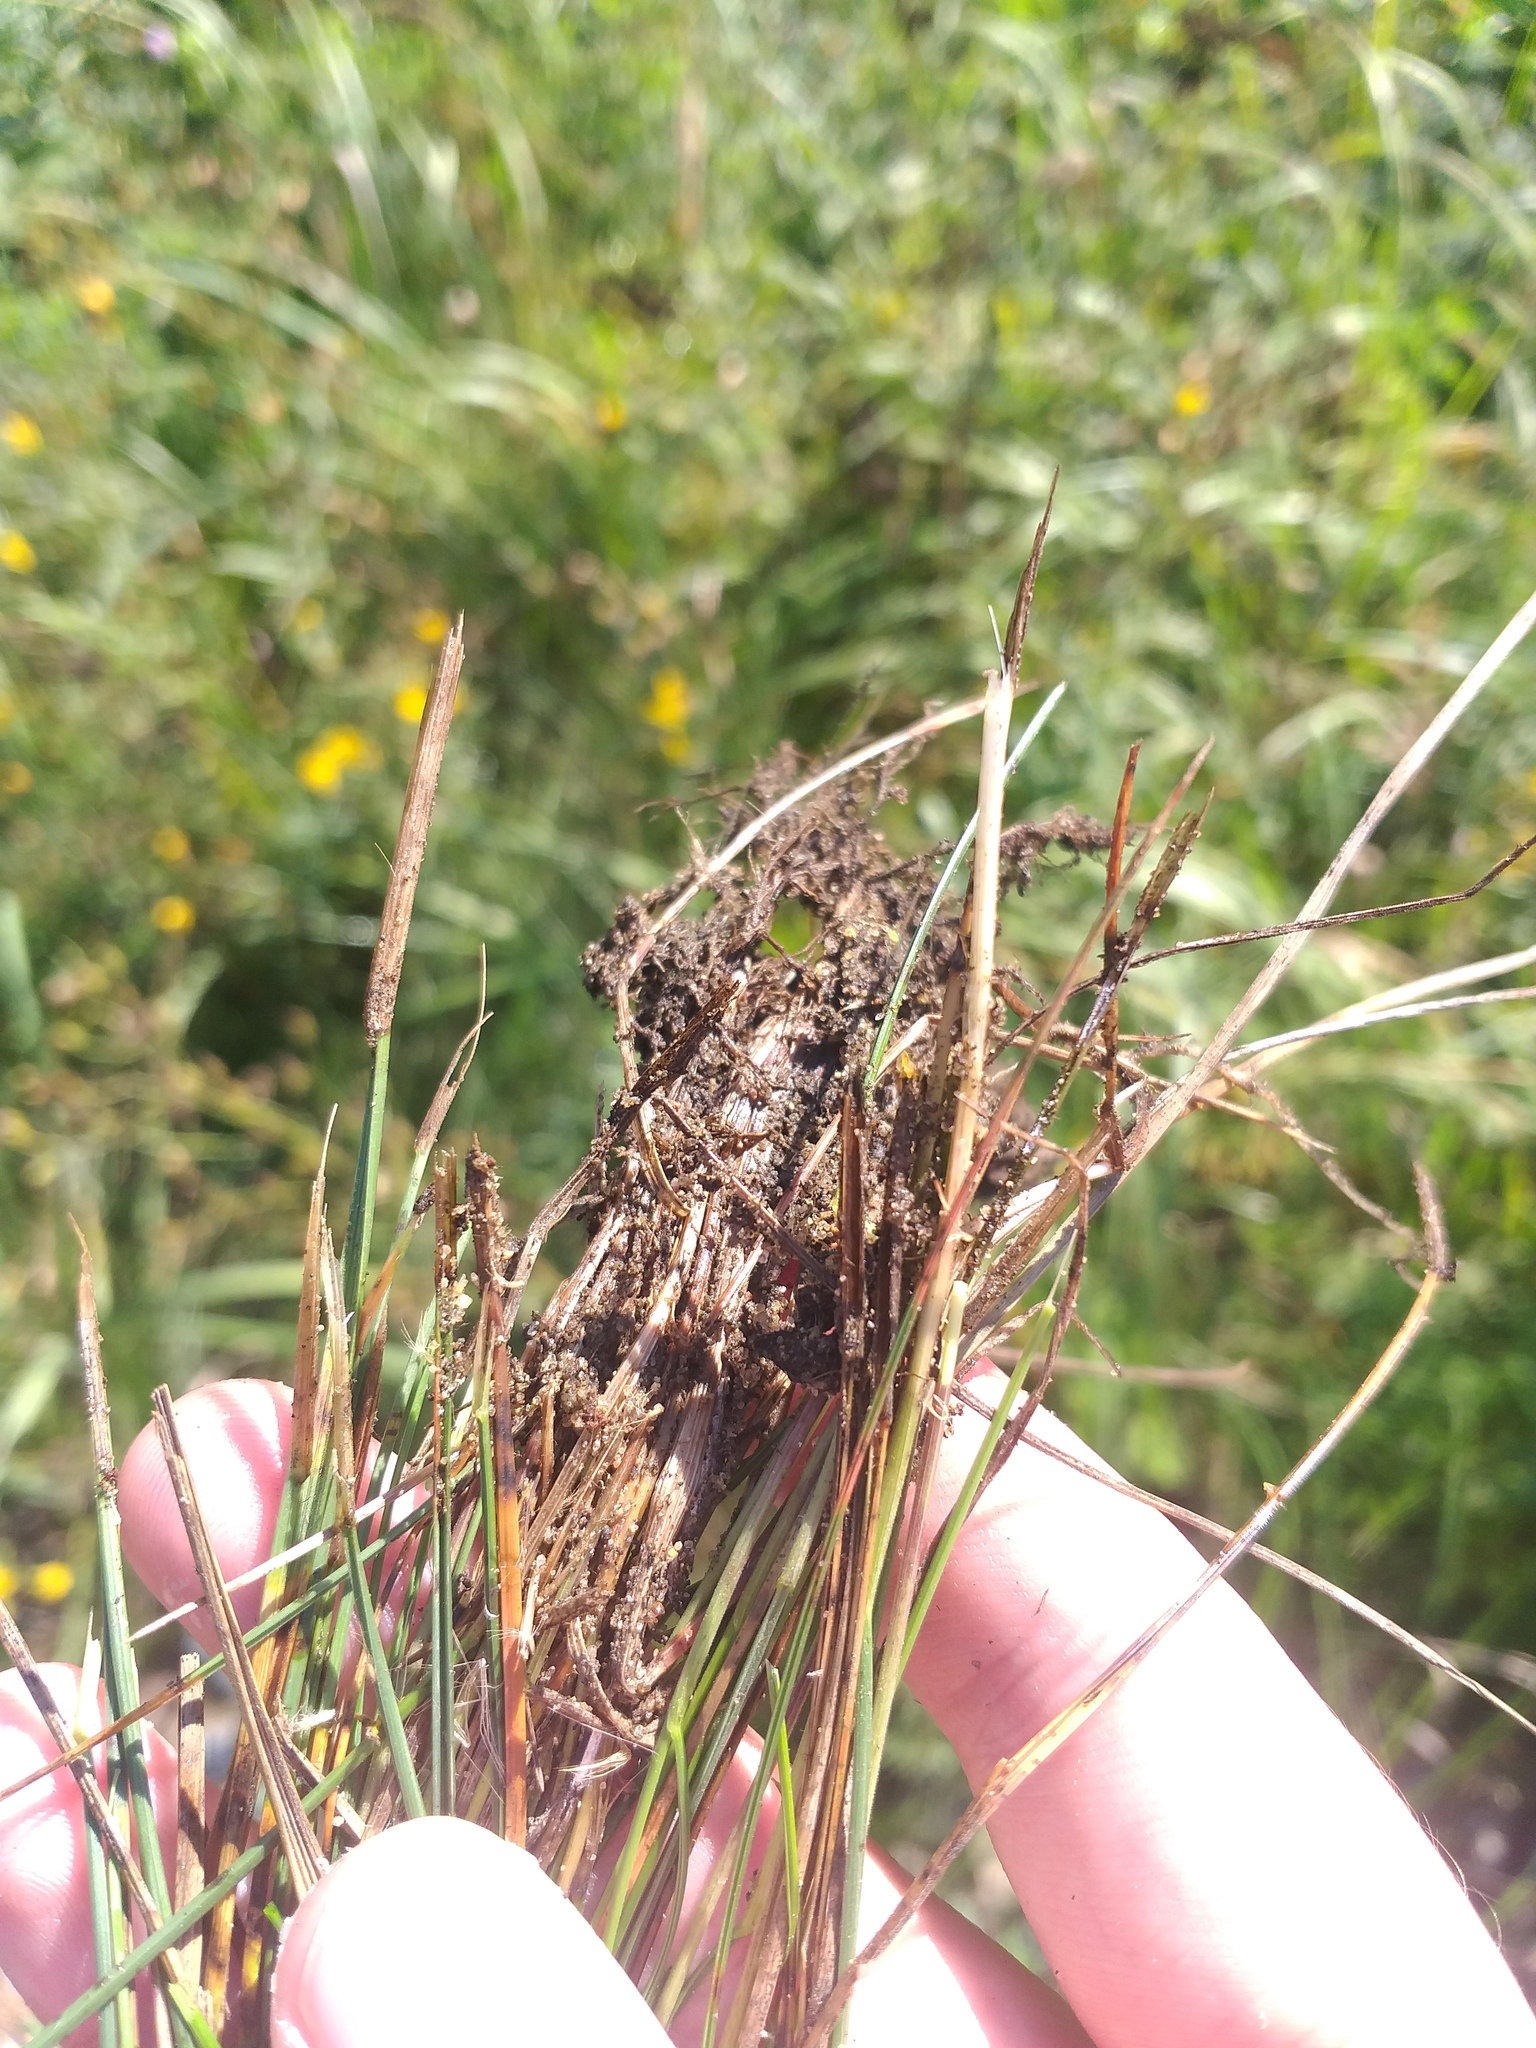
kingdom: Plantae
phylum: Tracheophyta
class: Liliopsida
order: Poales
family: Poaceae
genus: Festuca
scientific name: Festuca rubra
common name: Red fescue
